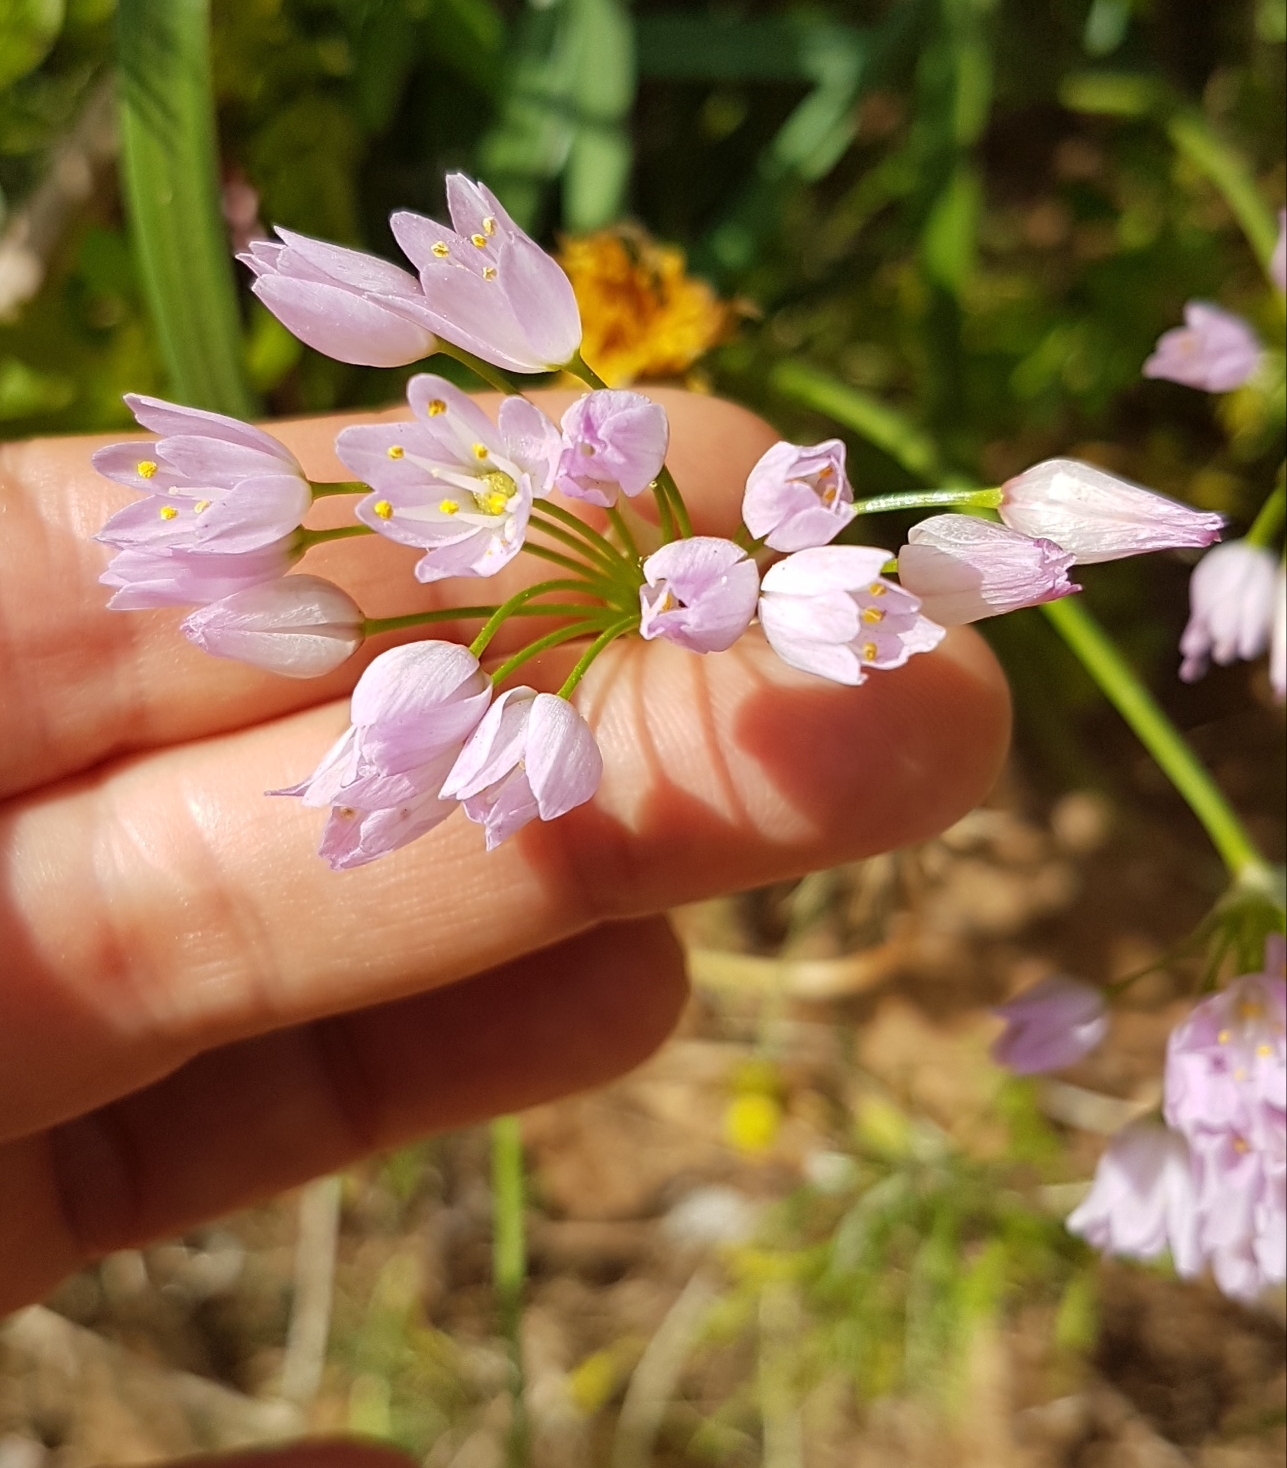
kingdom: Plantae
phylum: Tracheophyta
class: Liliopsida
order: Asparagales
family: Amaryllidaceae
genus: Allium
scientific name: Allium roseum
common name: Rosy garlic
